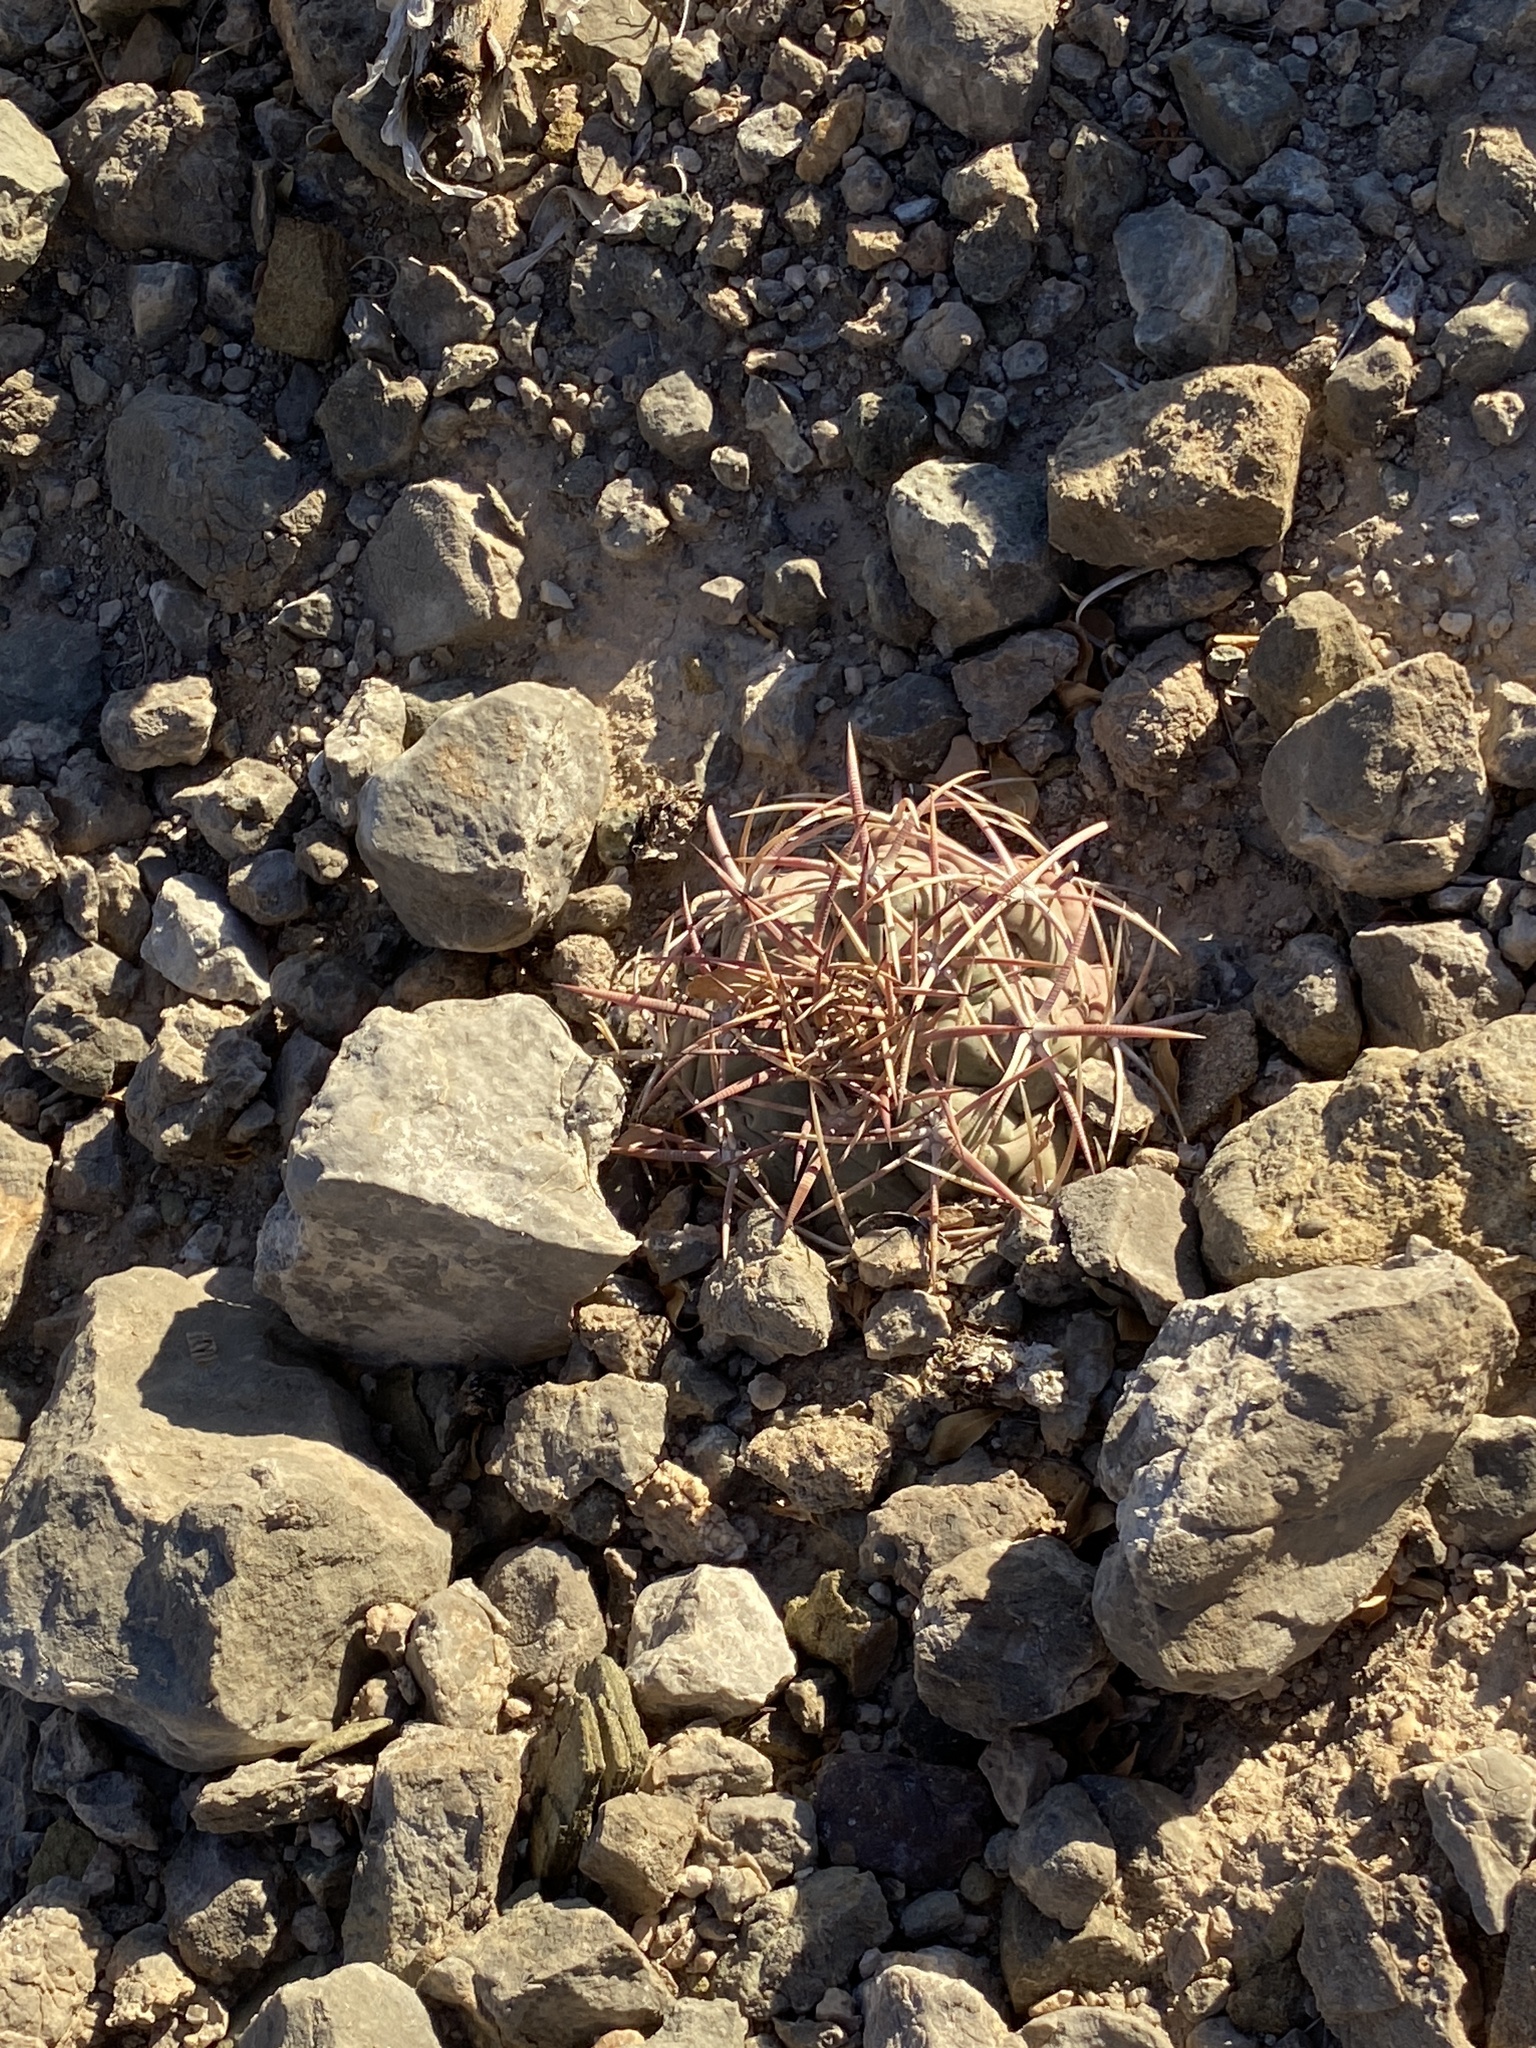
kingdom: Plantae
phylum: Tracheophyta
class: Magnoliopsida
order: Caryophyllales
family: Cactaceae
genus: Echinocactus
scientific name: Echinocactus horizonthalonius
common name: Devilshead
